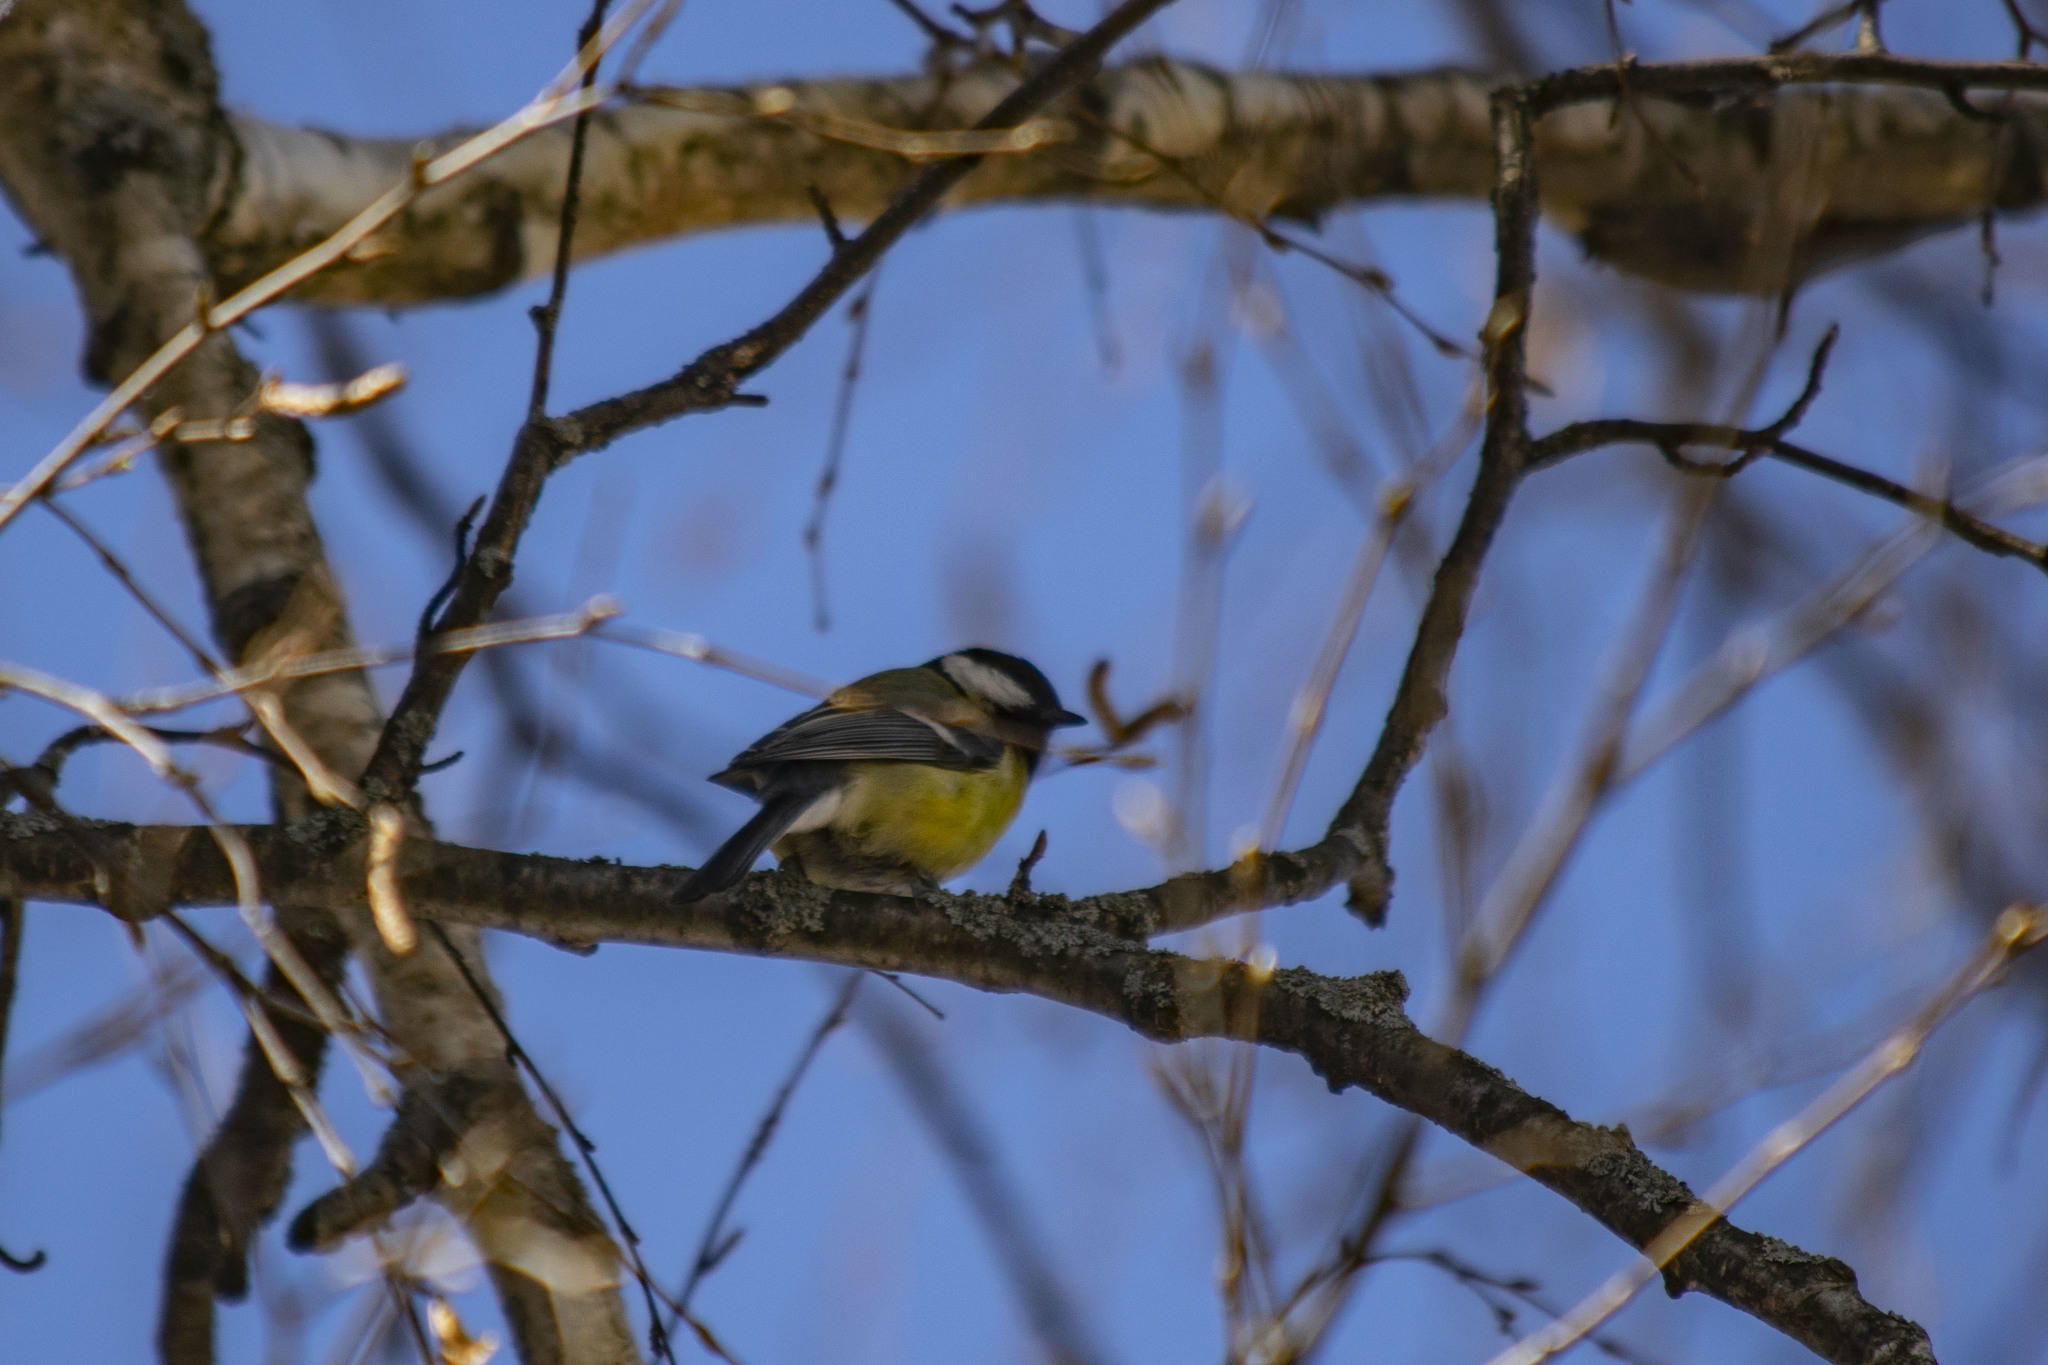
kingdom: Animalia
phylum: Chordata
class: Aves
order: Passeriformes
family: Paridae
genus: Parus
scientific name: Parus major
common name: Great tit
